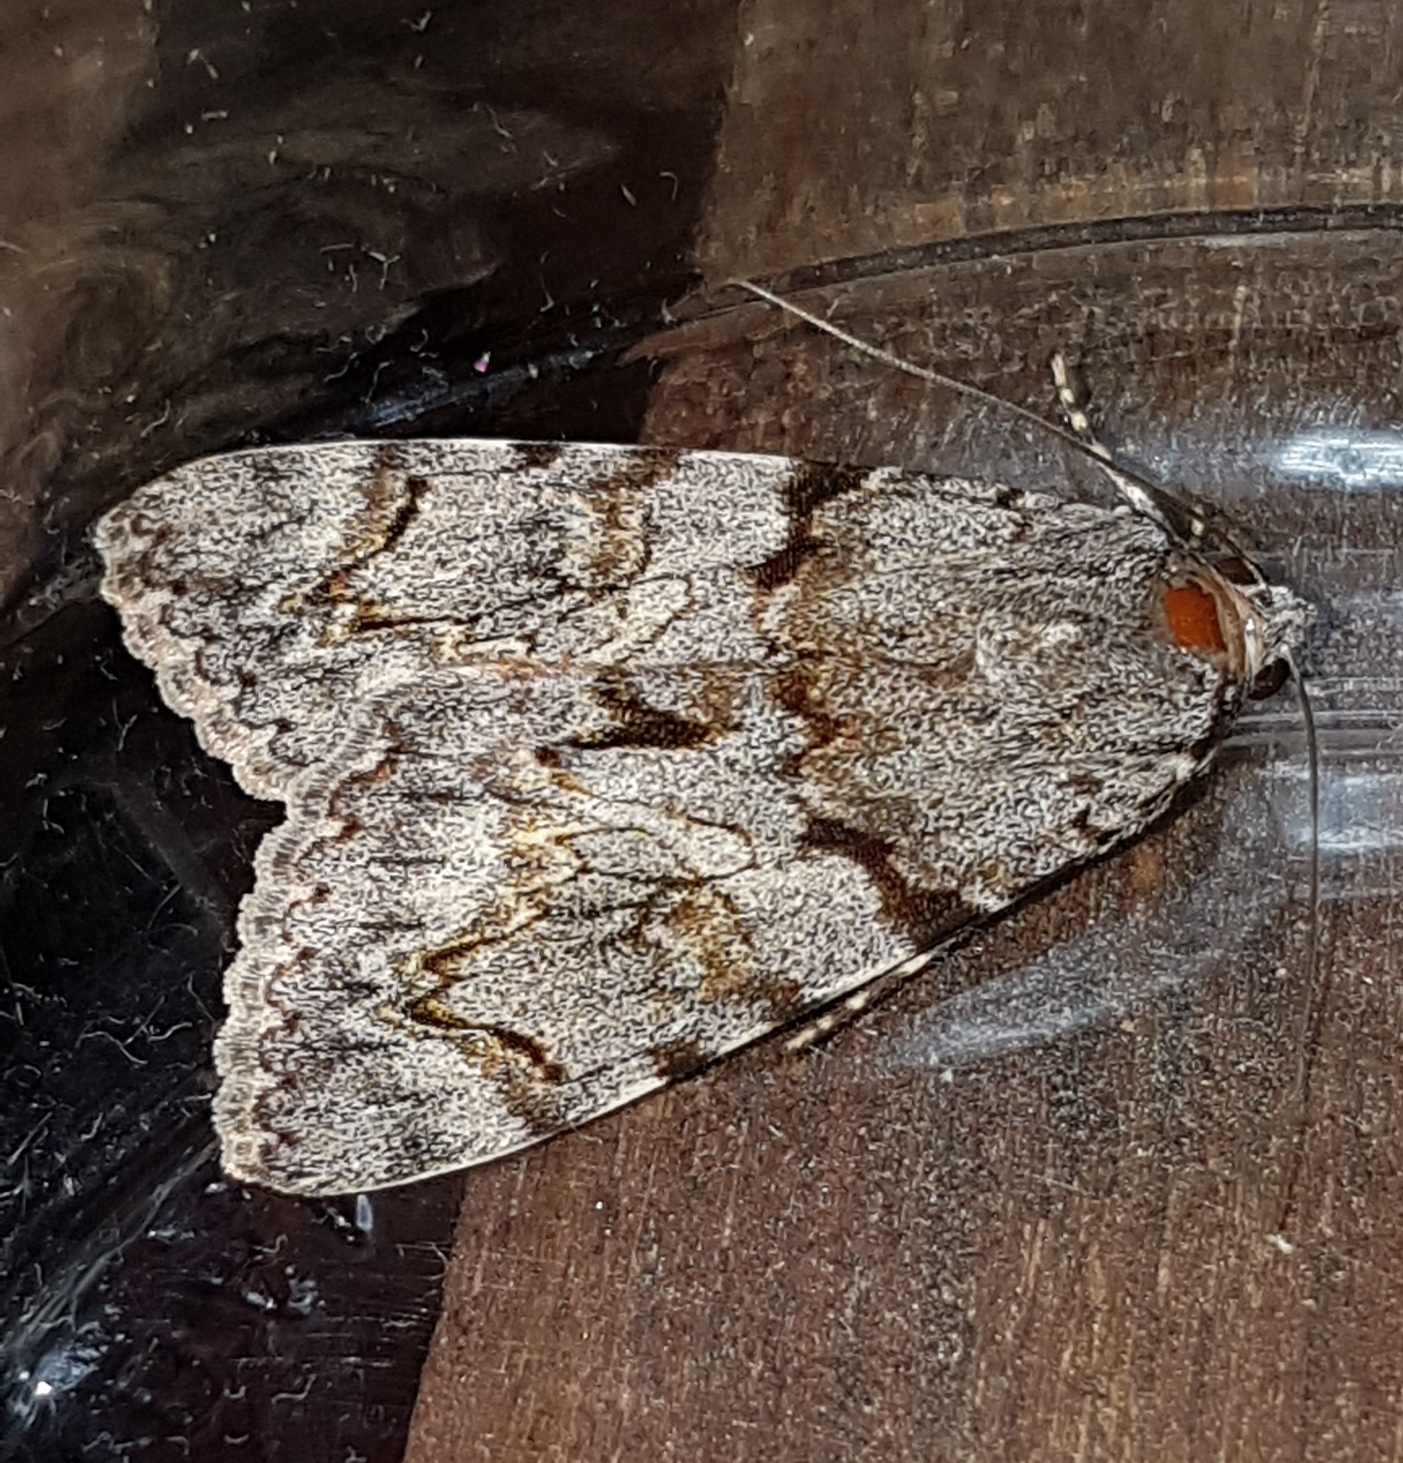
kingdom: Animalia
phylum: Arthropoda
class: Insecta
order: Lepidoptera
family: Erebidae
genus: Catocala
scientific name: Catocala conversa
